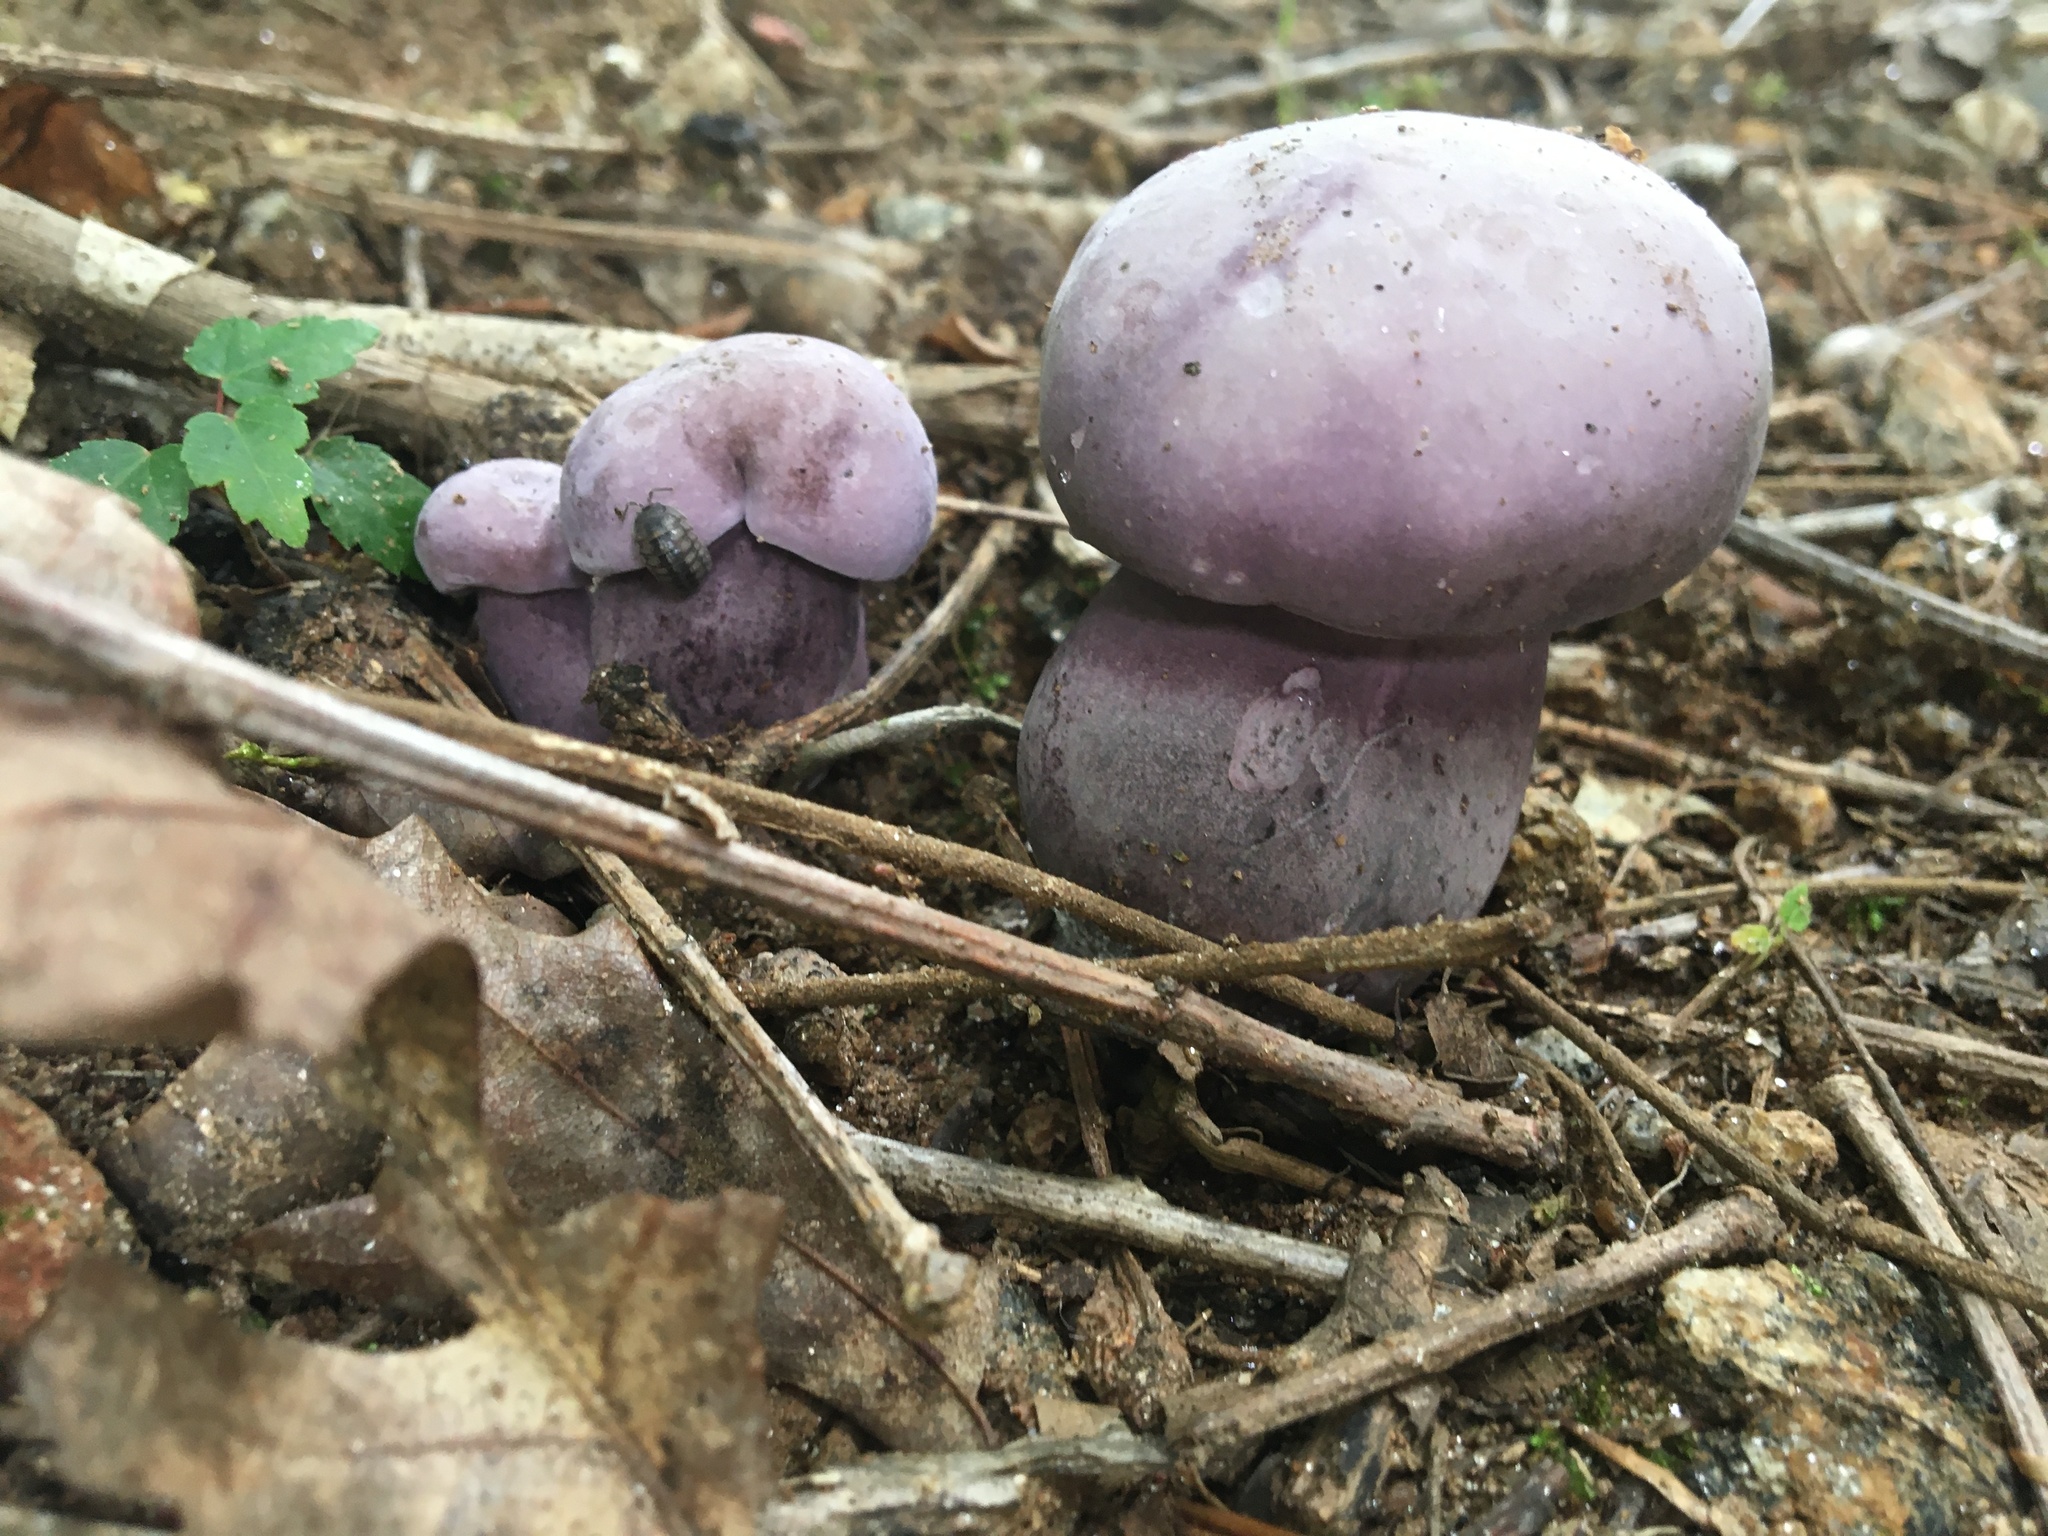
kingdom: Fungi
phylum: Basidiomycota
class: Agaricomycetes
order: Boletales
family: Boletaceae
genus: Tylopilus
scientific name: Tylopilus plumbeoviolaceus
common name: Violet gray bolete
